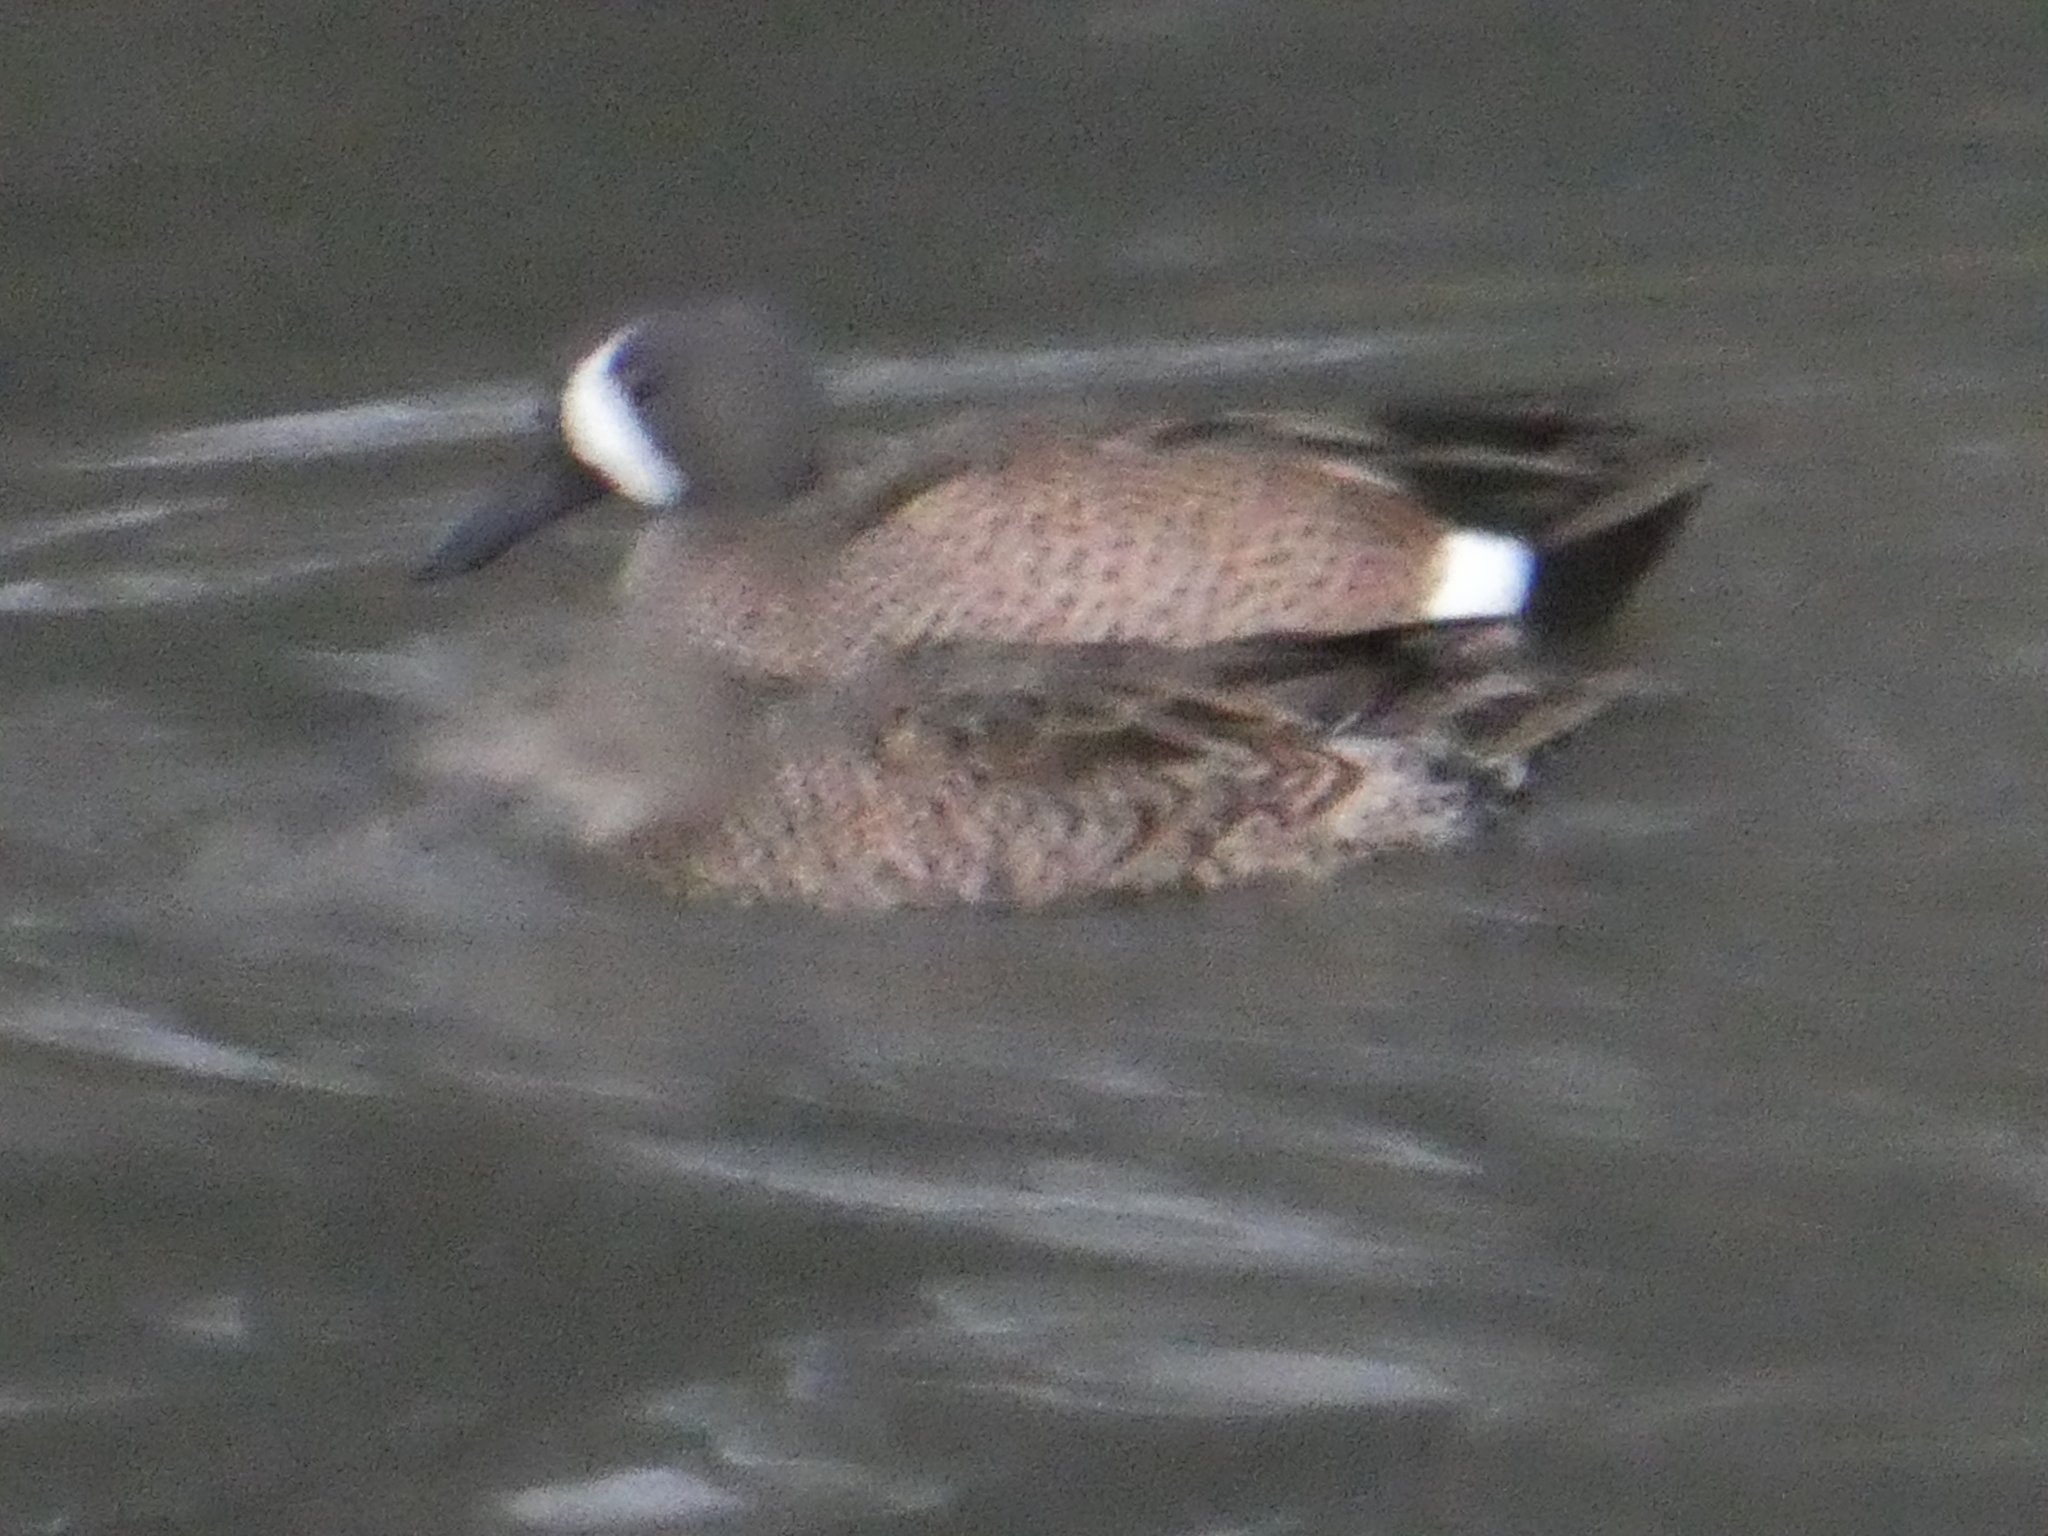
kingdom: Animalia
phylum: Chordata
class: Aves
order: Anseriformes
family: Anatidae
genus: Spatula
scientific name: Spatula discors
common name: Blue-winged teal
